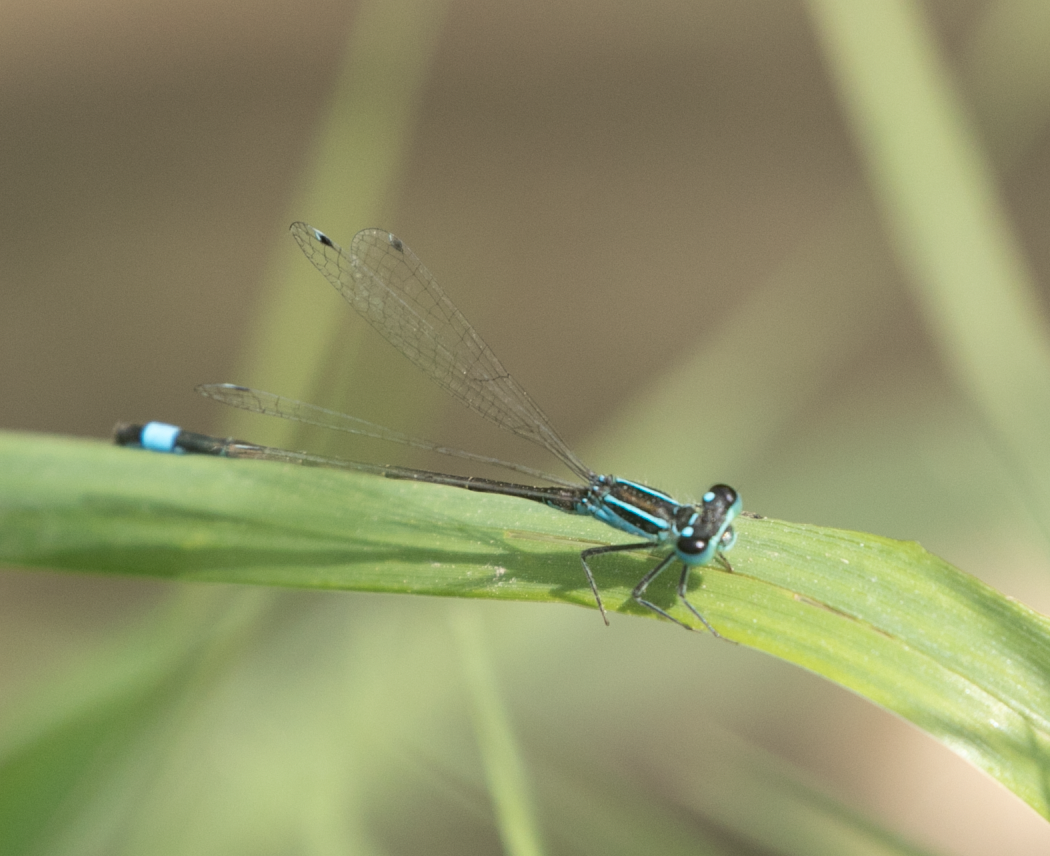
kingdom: Animalia
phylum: Arthropoda
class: Insecta
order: Odonata
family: Coenagrionidae
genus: Ischnura
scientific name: Ischnura elegans
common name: Blue-tailed damselfly
